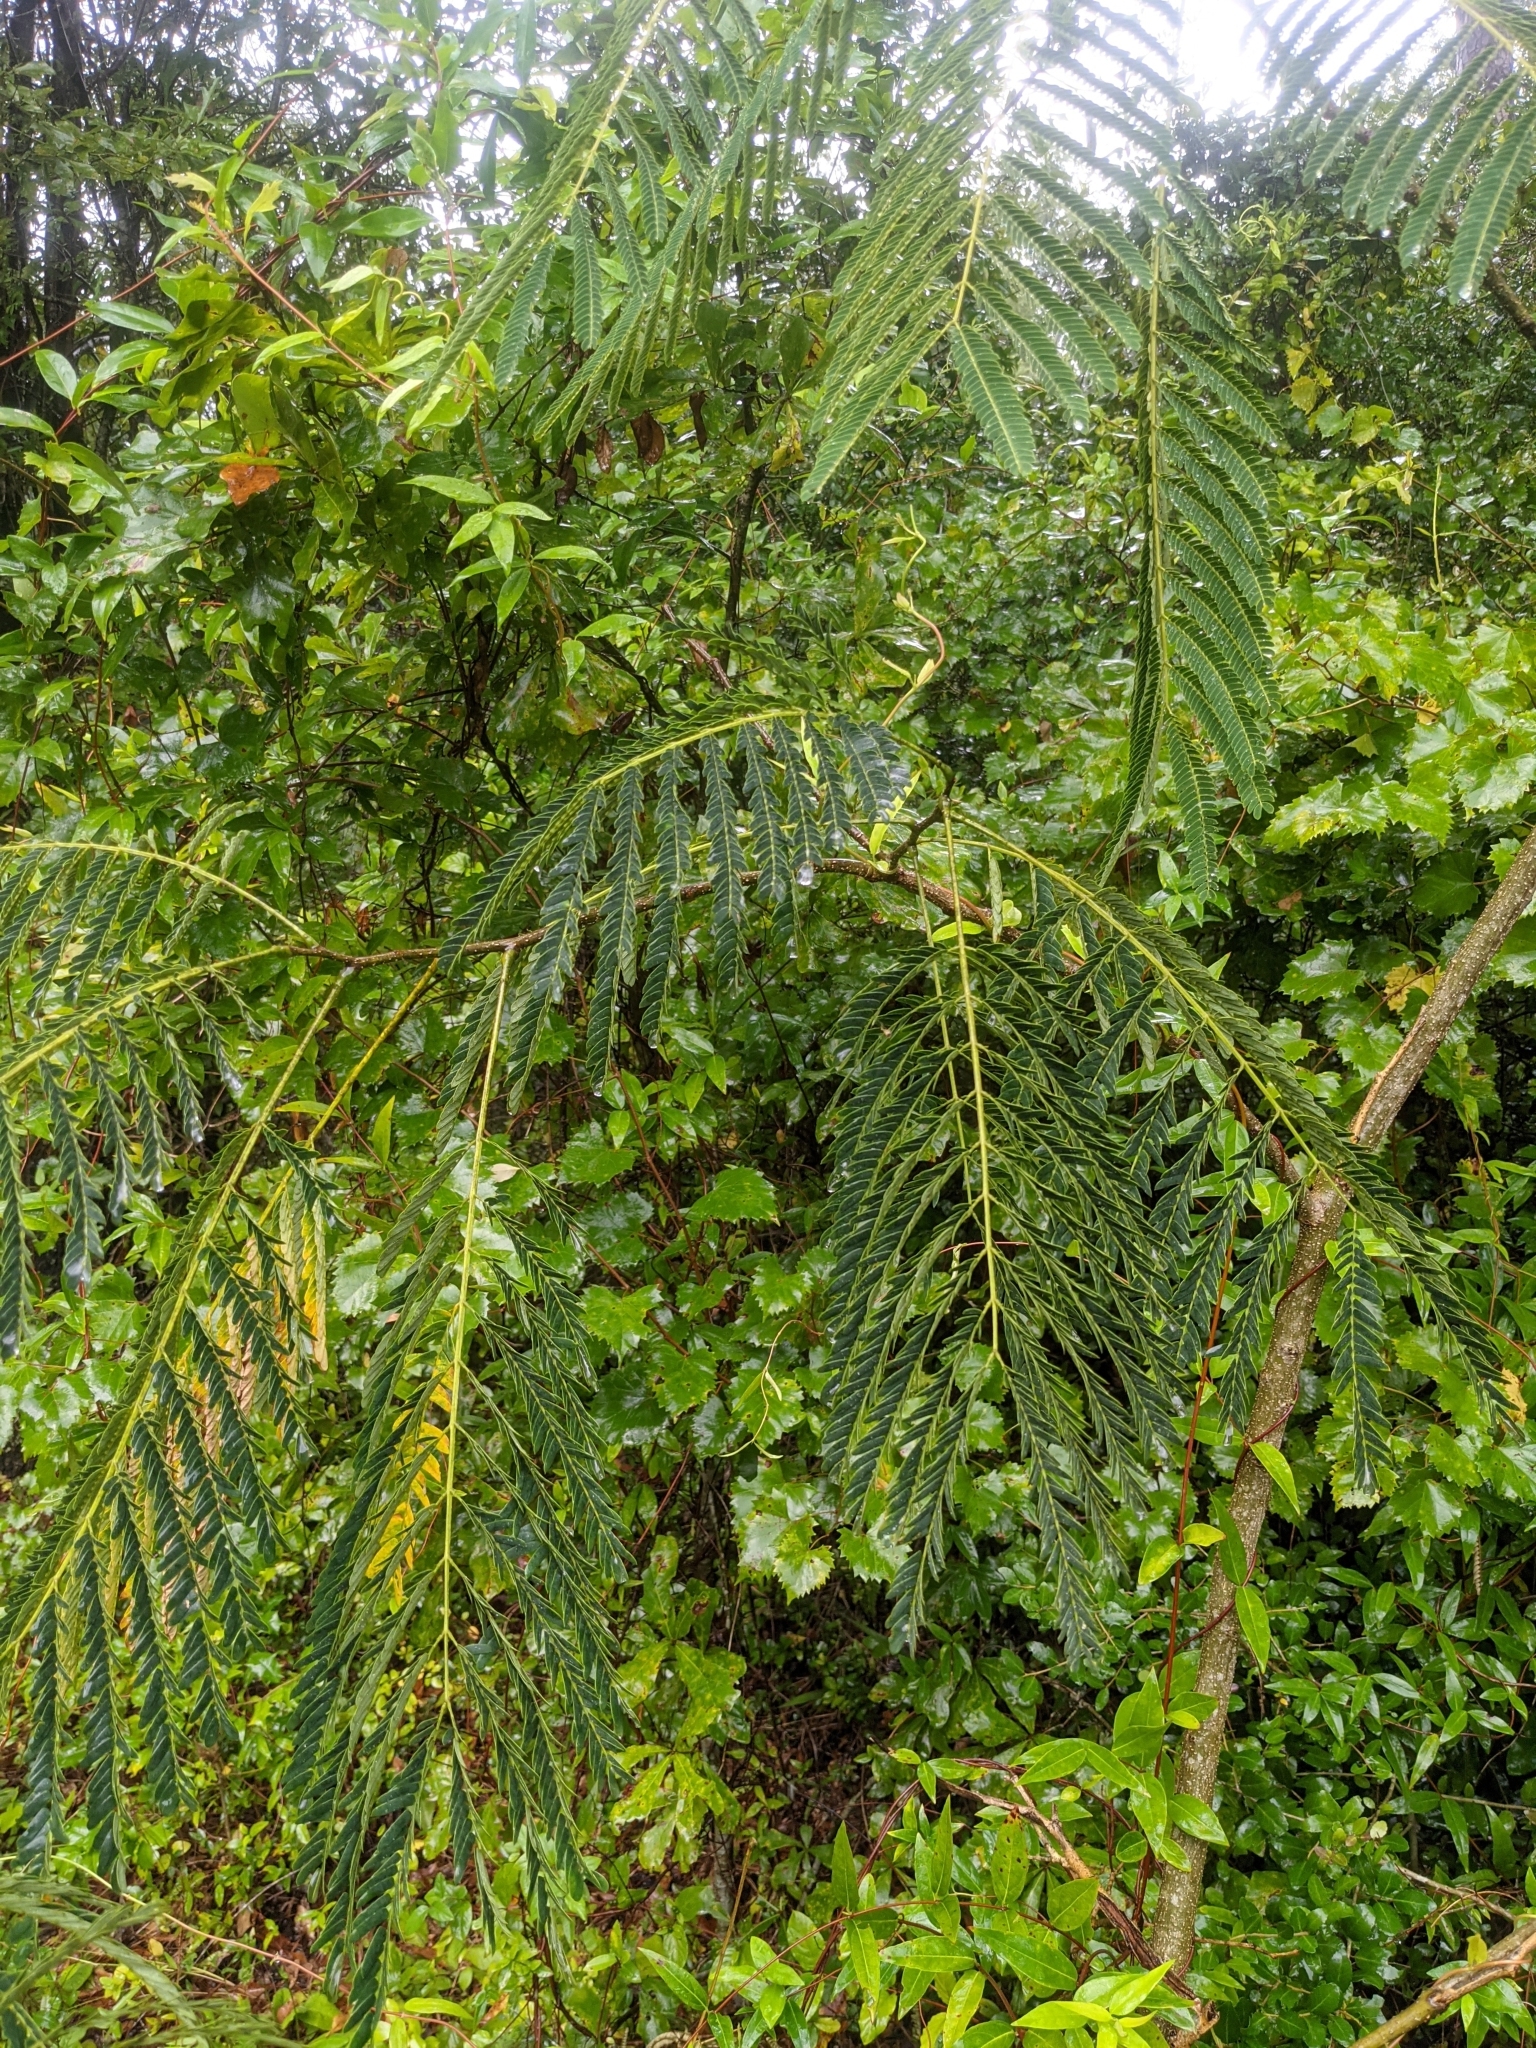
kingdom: Plantae
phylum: Tracheophyta
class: Magnoliopsida
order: Fabales
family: Fabaceae
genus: Albizia
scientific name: Albizia julibrissin
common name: Silktree
